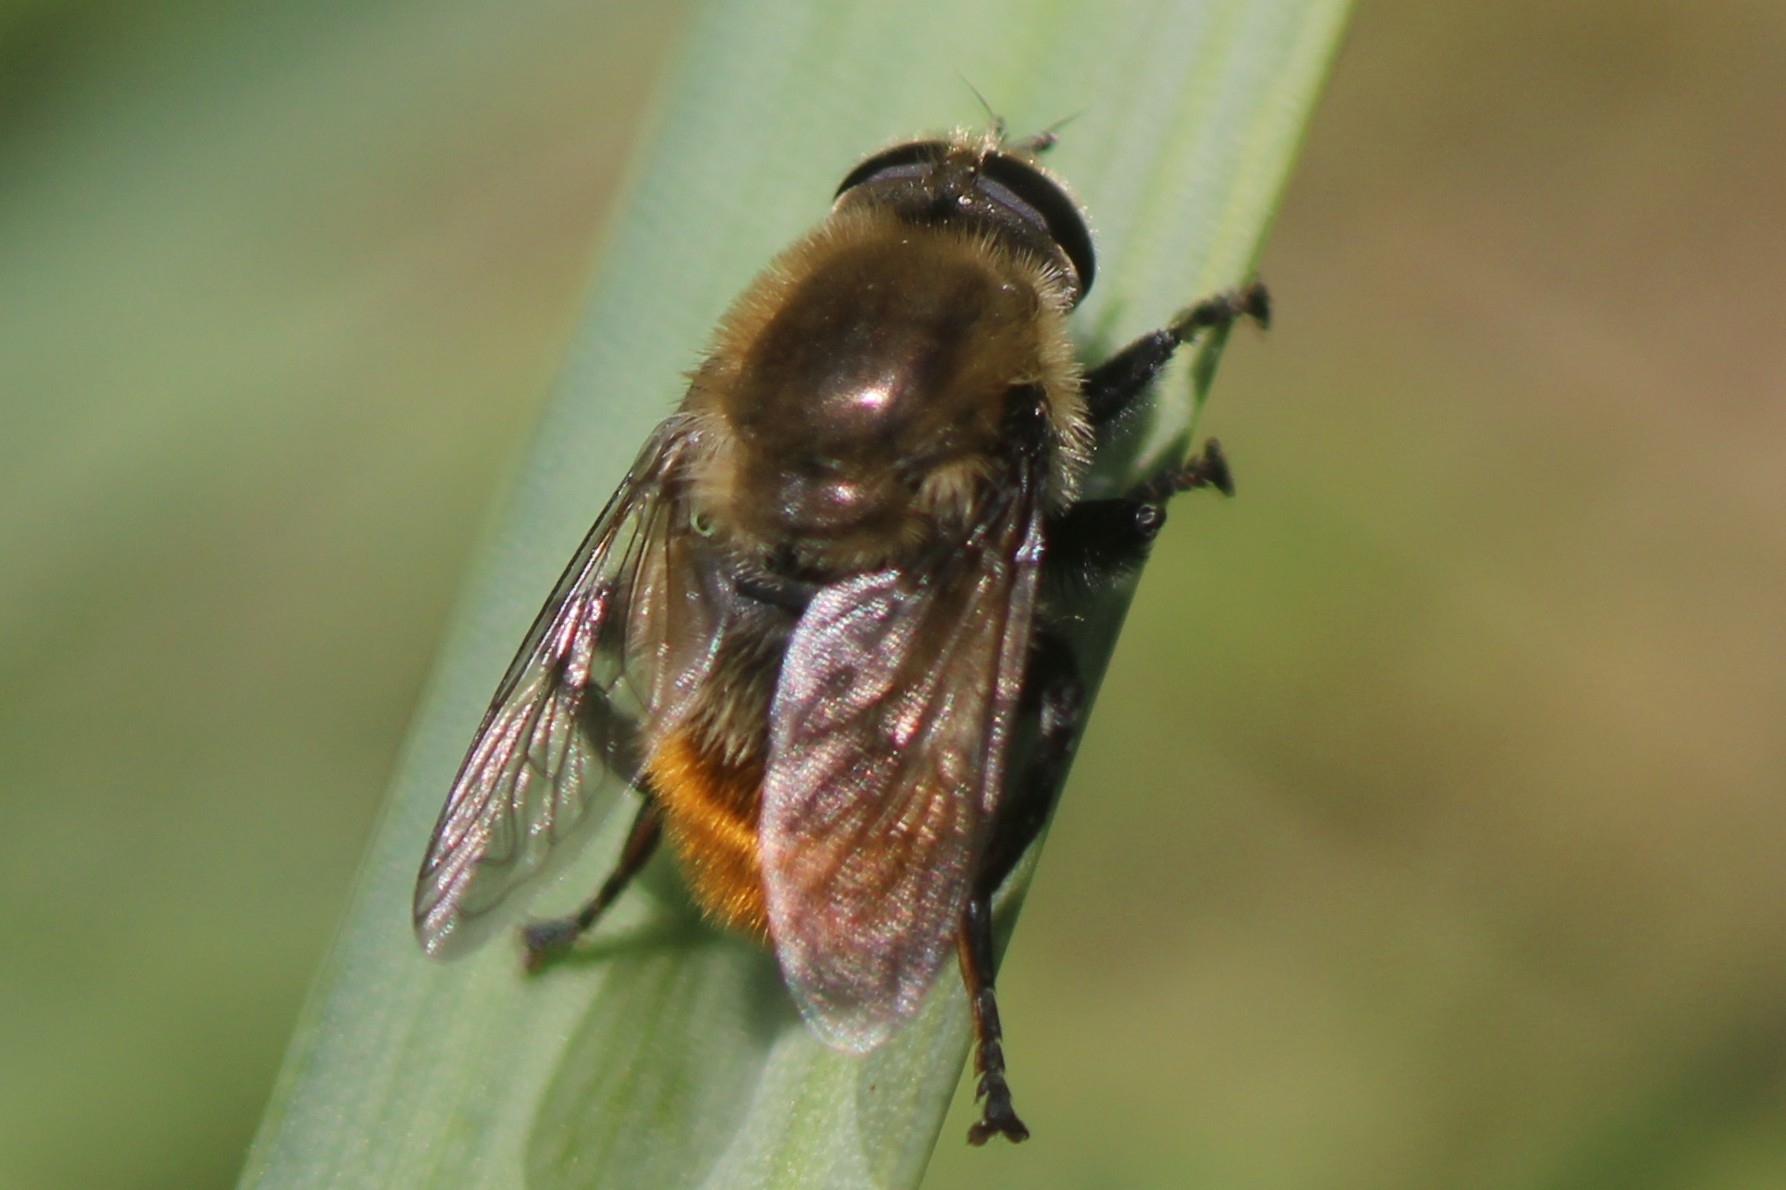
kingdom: Animalia
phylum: Arthropoda
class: Insecta
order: Diptera
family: Syrphidae
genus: Merodon
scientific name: Merodon equestris
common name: Greater bulb-fly
